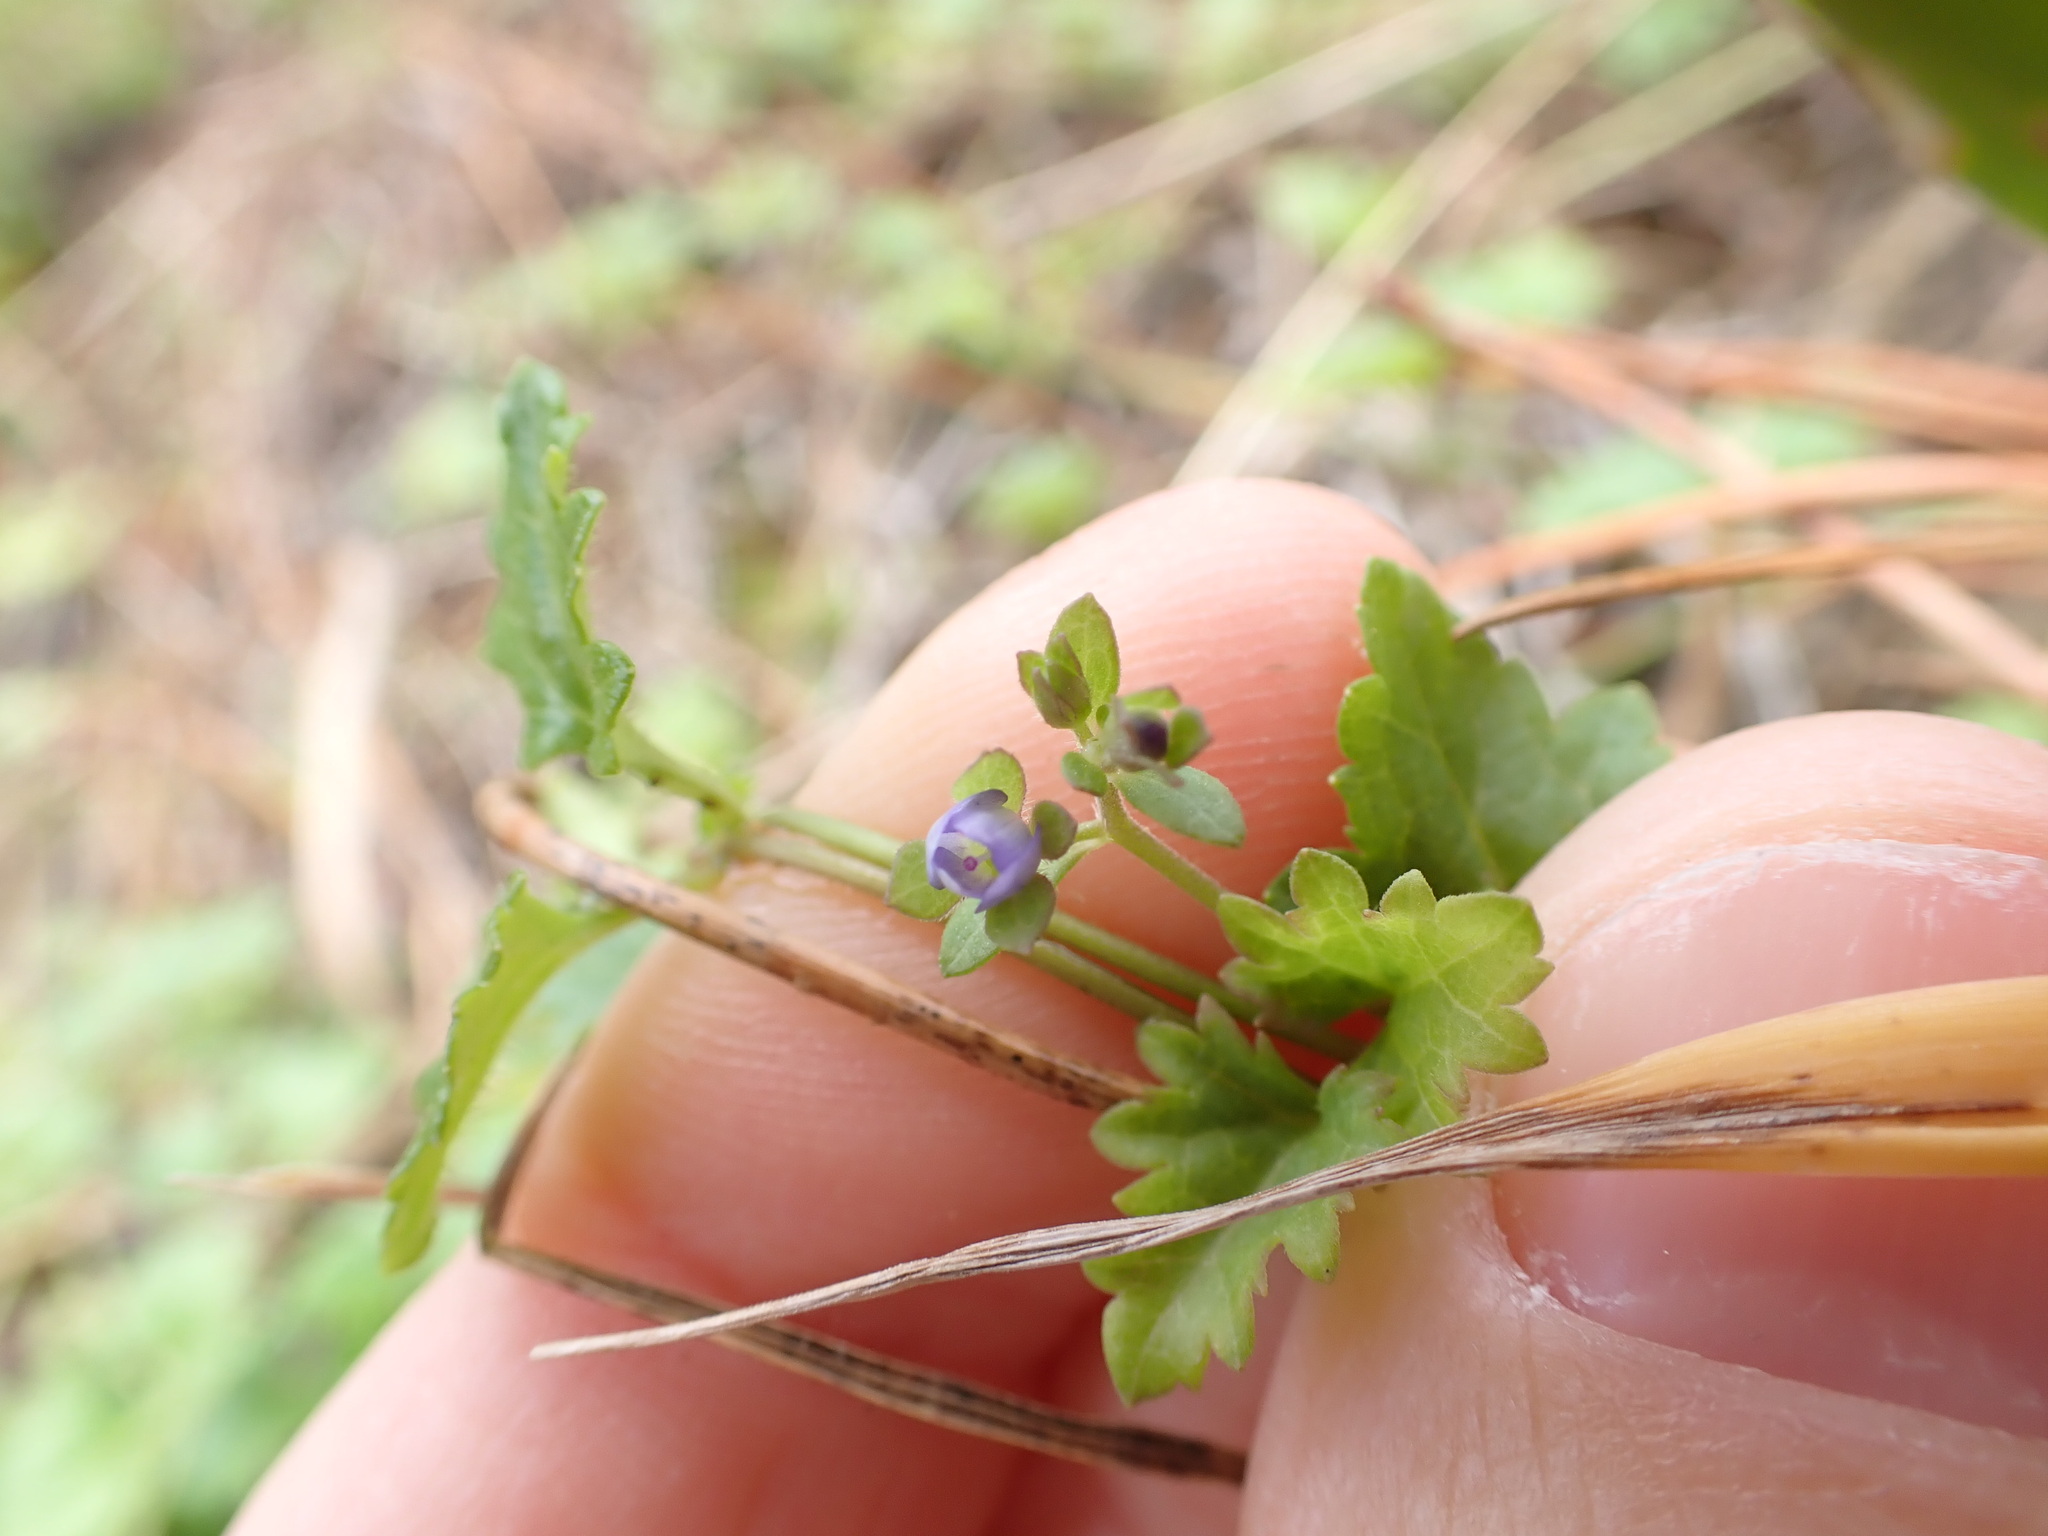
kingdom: Plantae
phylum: Tracheophyta
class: Magnoliopsida
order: Lamiales
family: Plantaginaceae
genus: Veronica
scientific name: Veronica plebeia
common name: Speedwell
